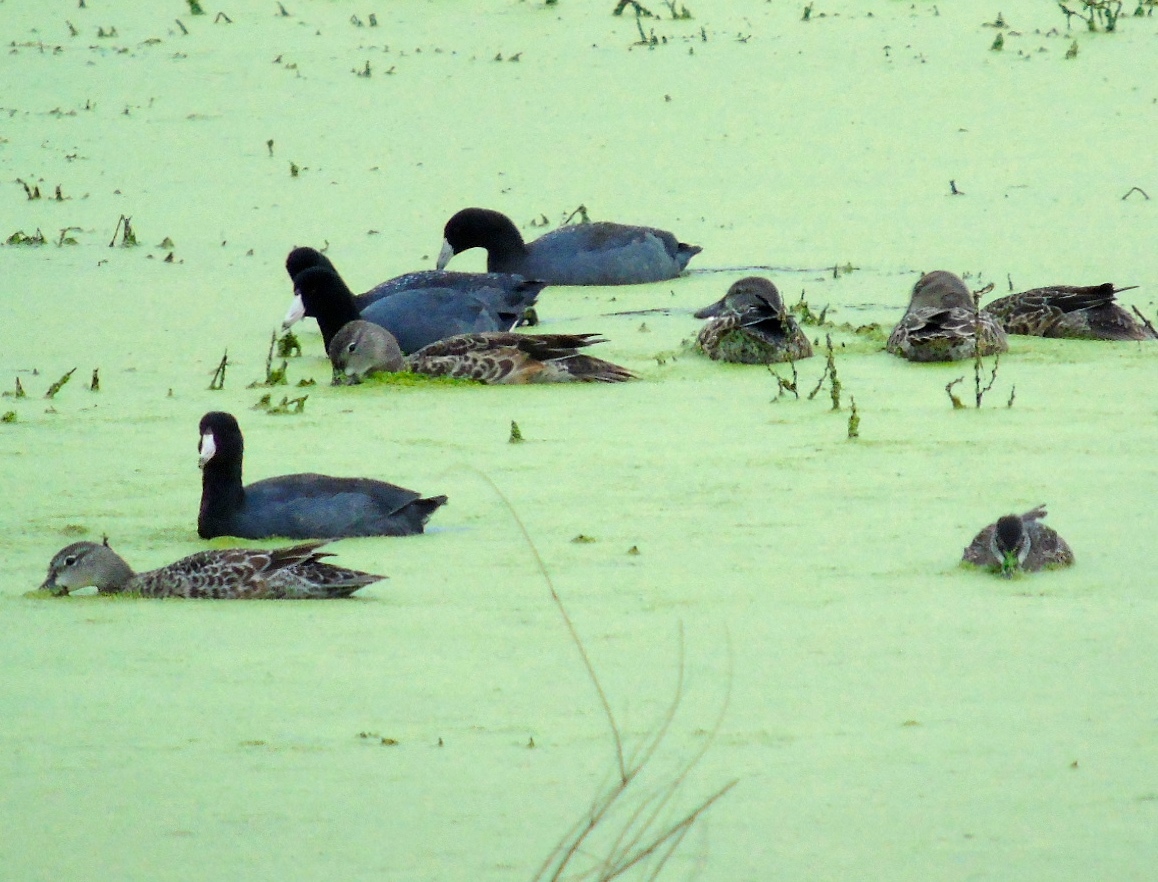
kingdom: Animalia
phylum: Chordata
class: Aves
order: Gruiformes
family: Rallidae
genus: Fulica
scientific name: Fulica americana
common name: American coot
